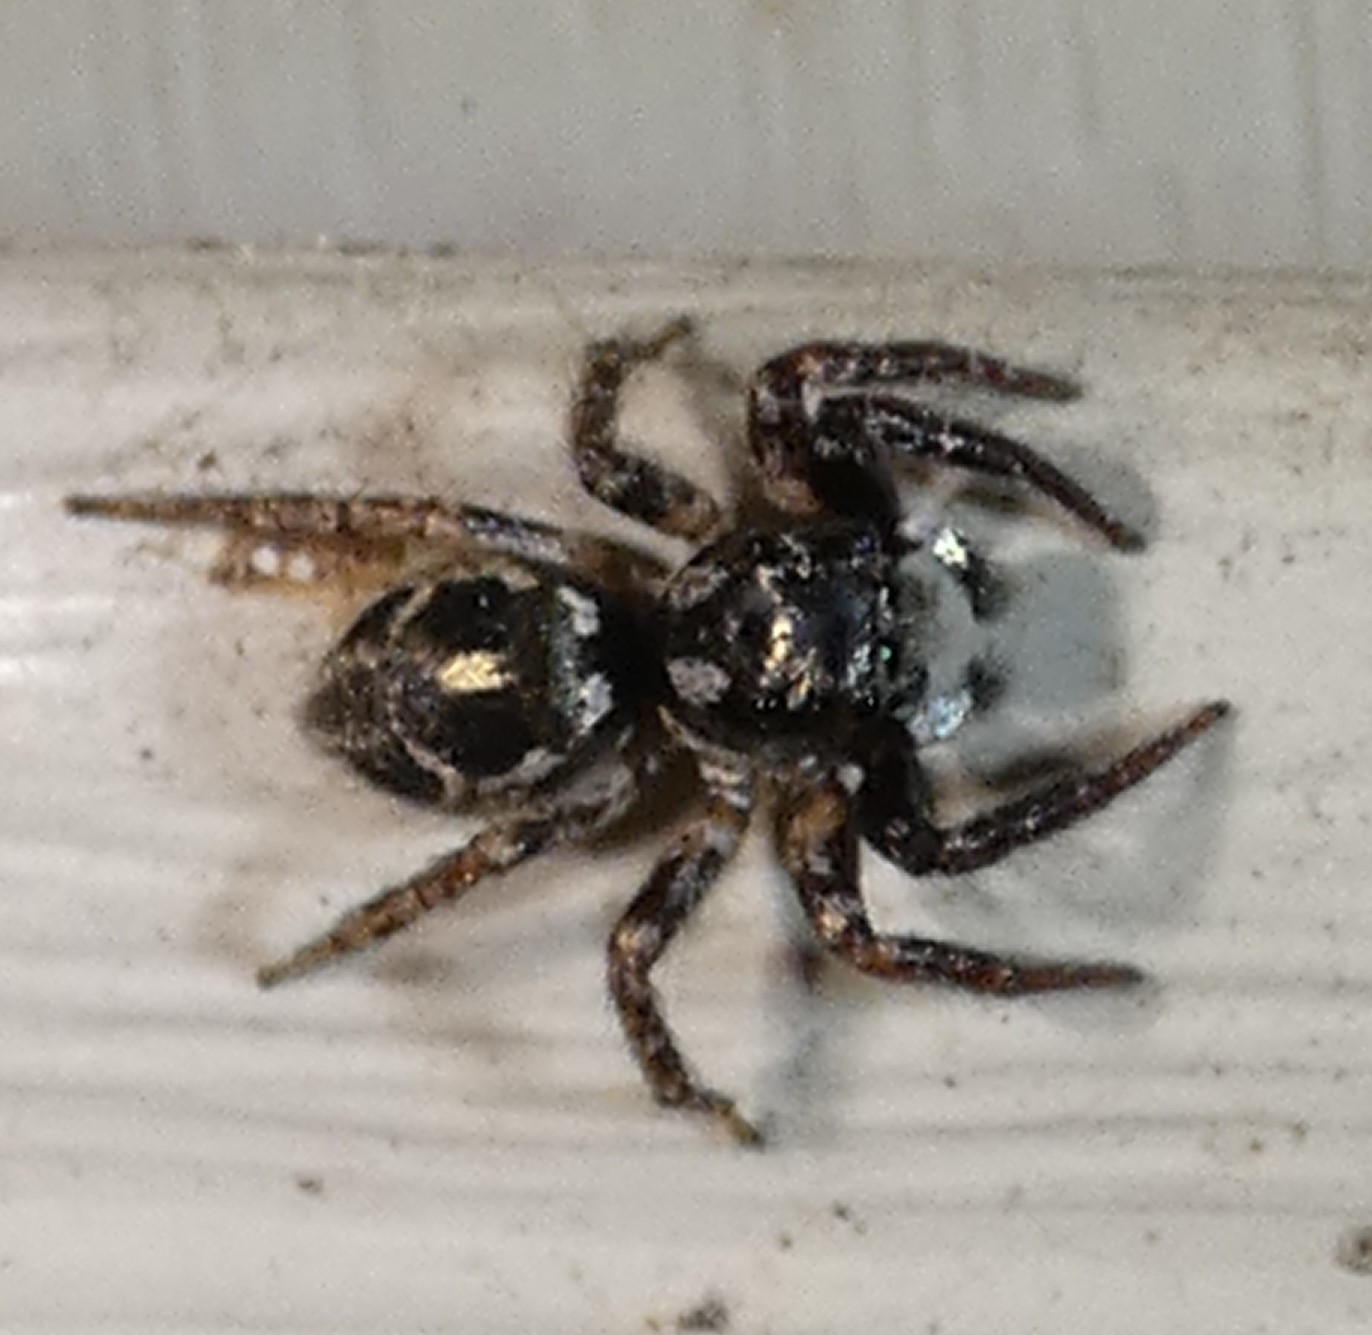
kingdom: Animalia
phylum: Arthropoda
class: Arachnida
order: Araneae
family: Salticidae
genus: Anasaitis
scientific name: Anasaitis canosa
